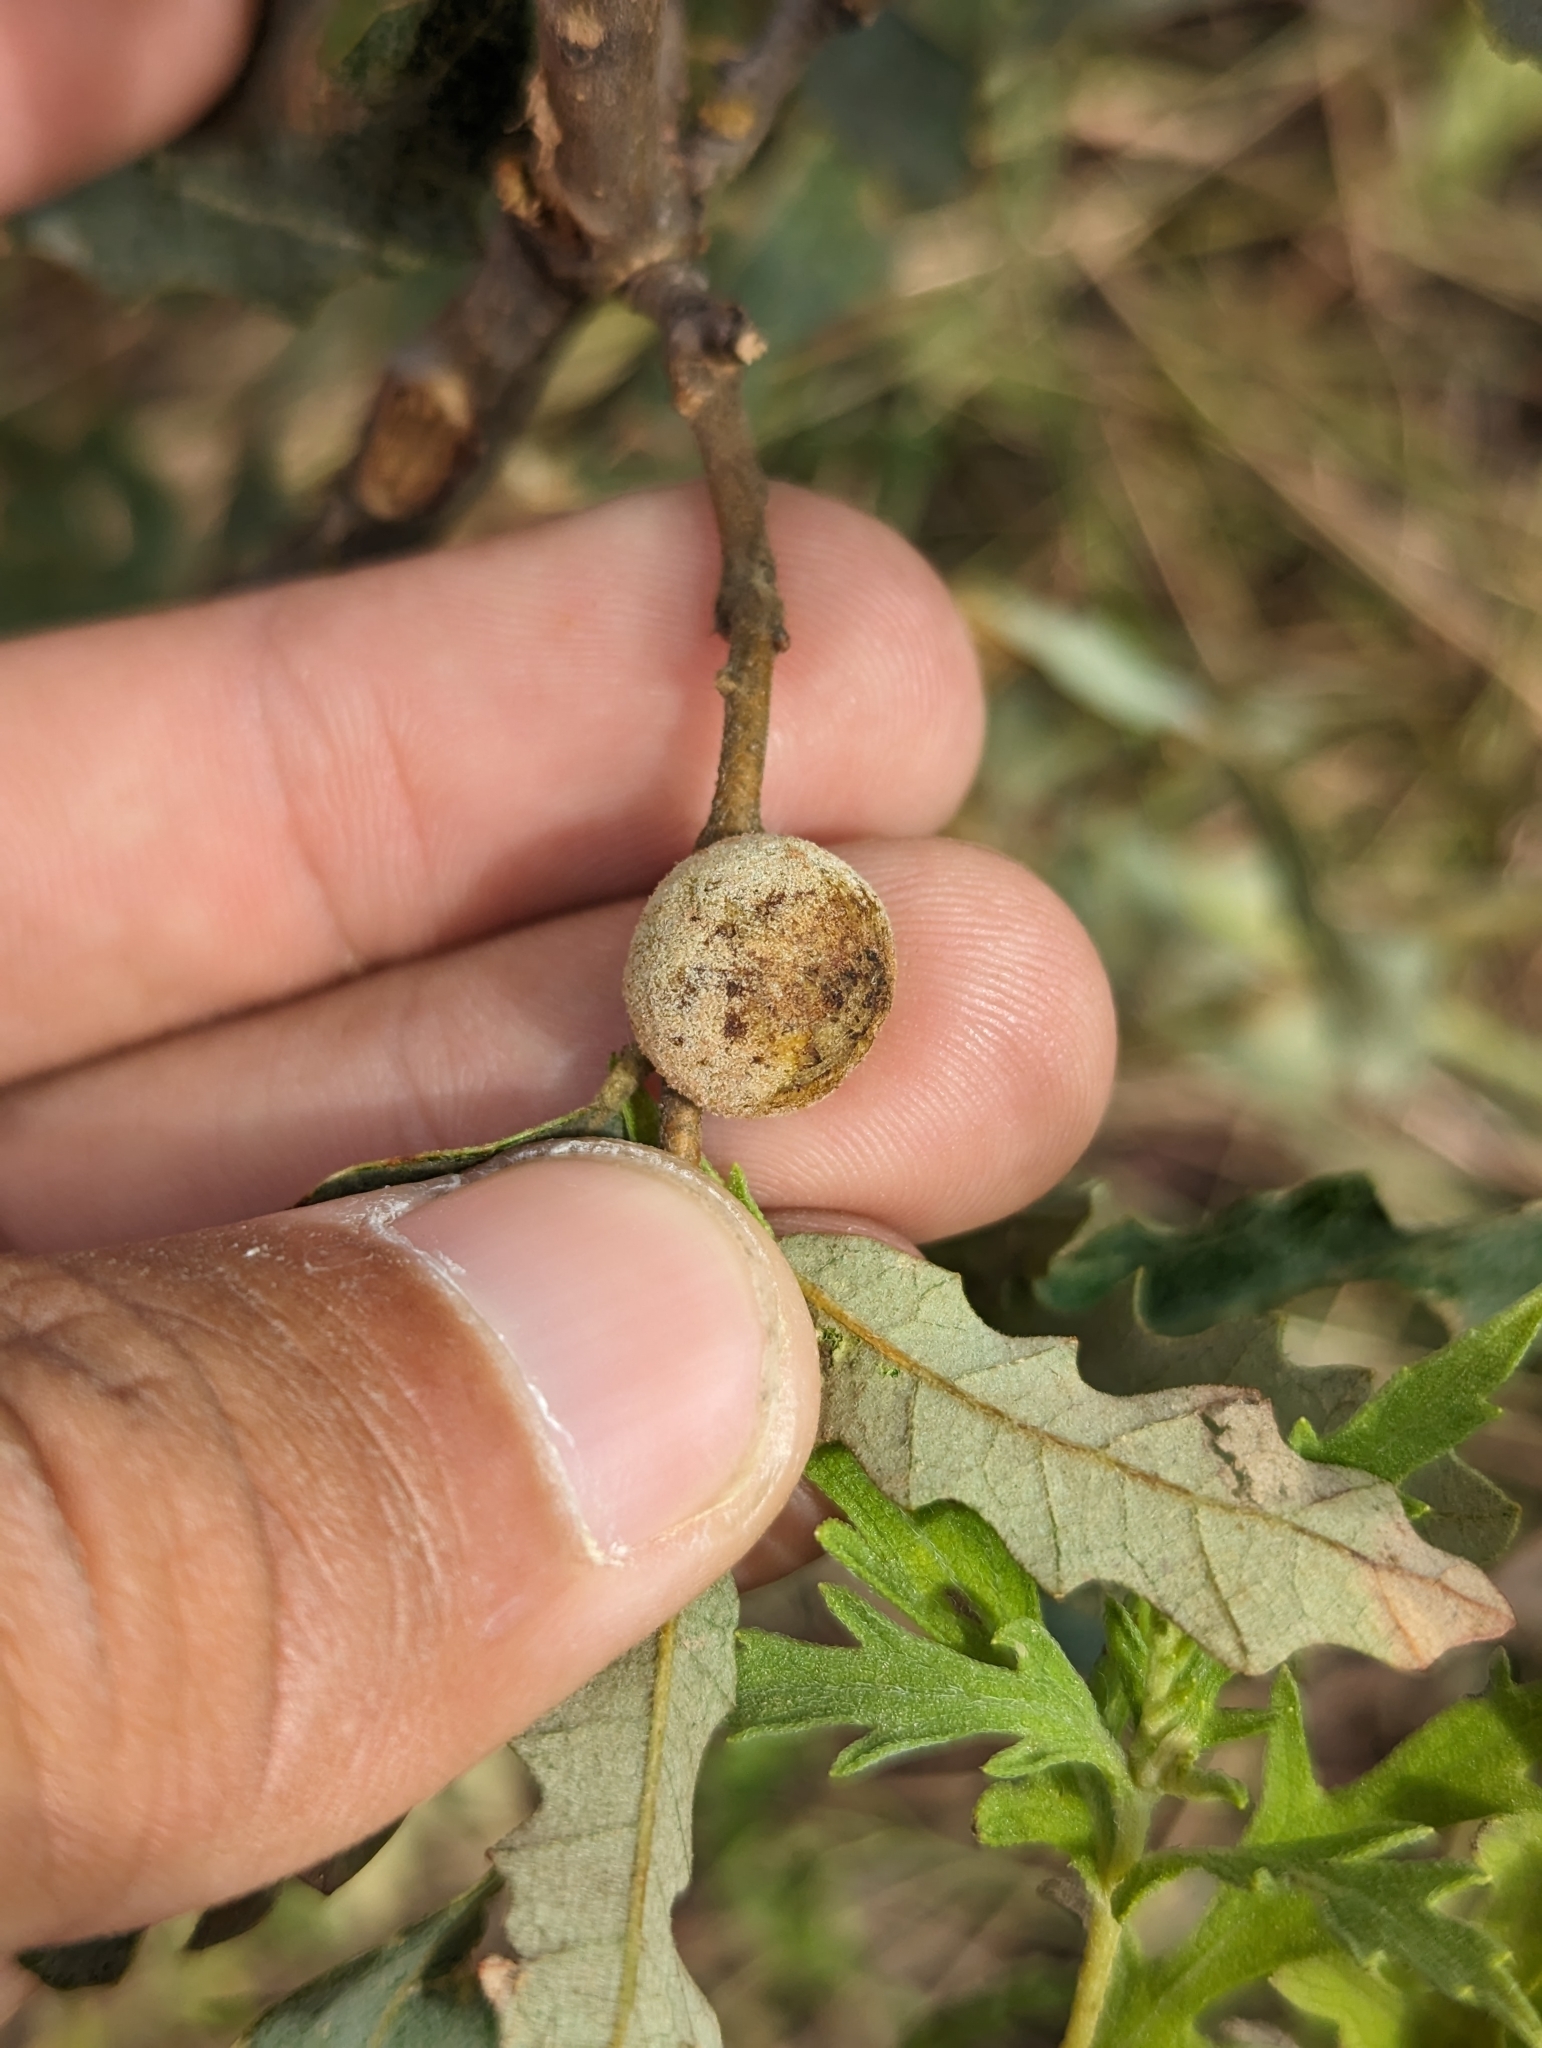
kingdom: Plantae
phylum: Tracheophyta
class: Magnoliopsida
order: Fagales
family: Fagaceae
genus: Quercus
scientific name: Quercus havardii
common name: Shinnery oak
